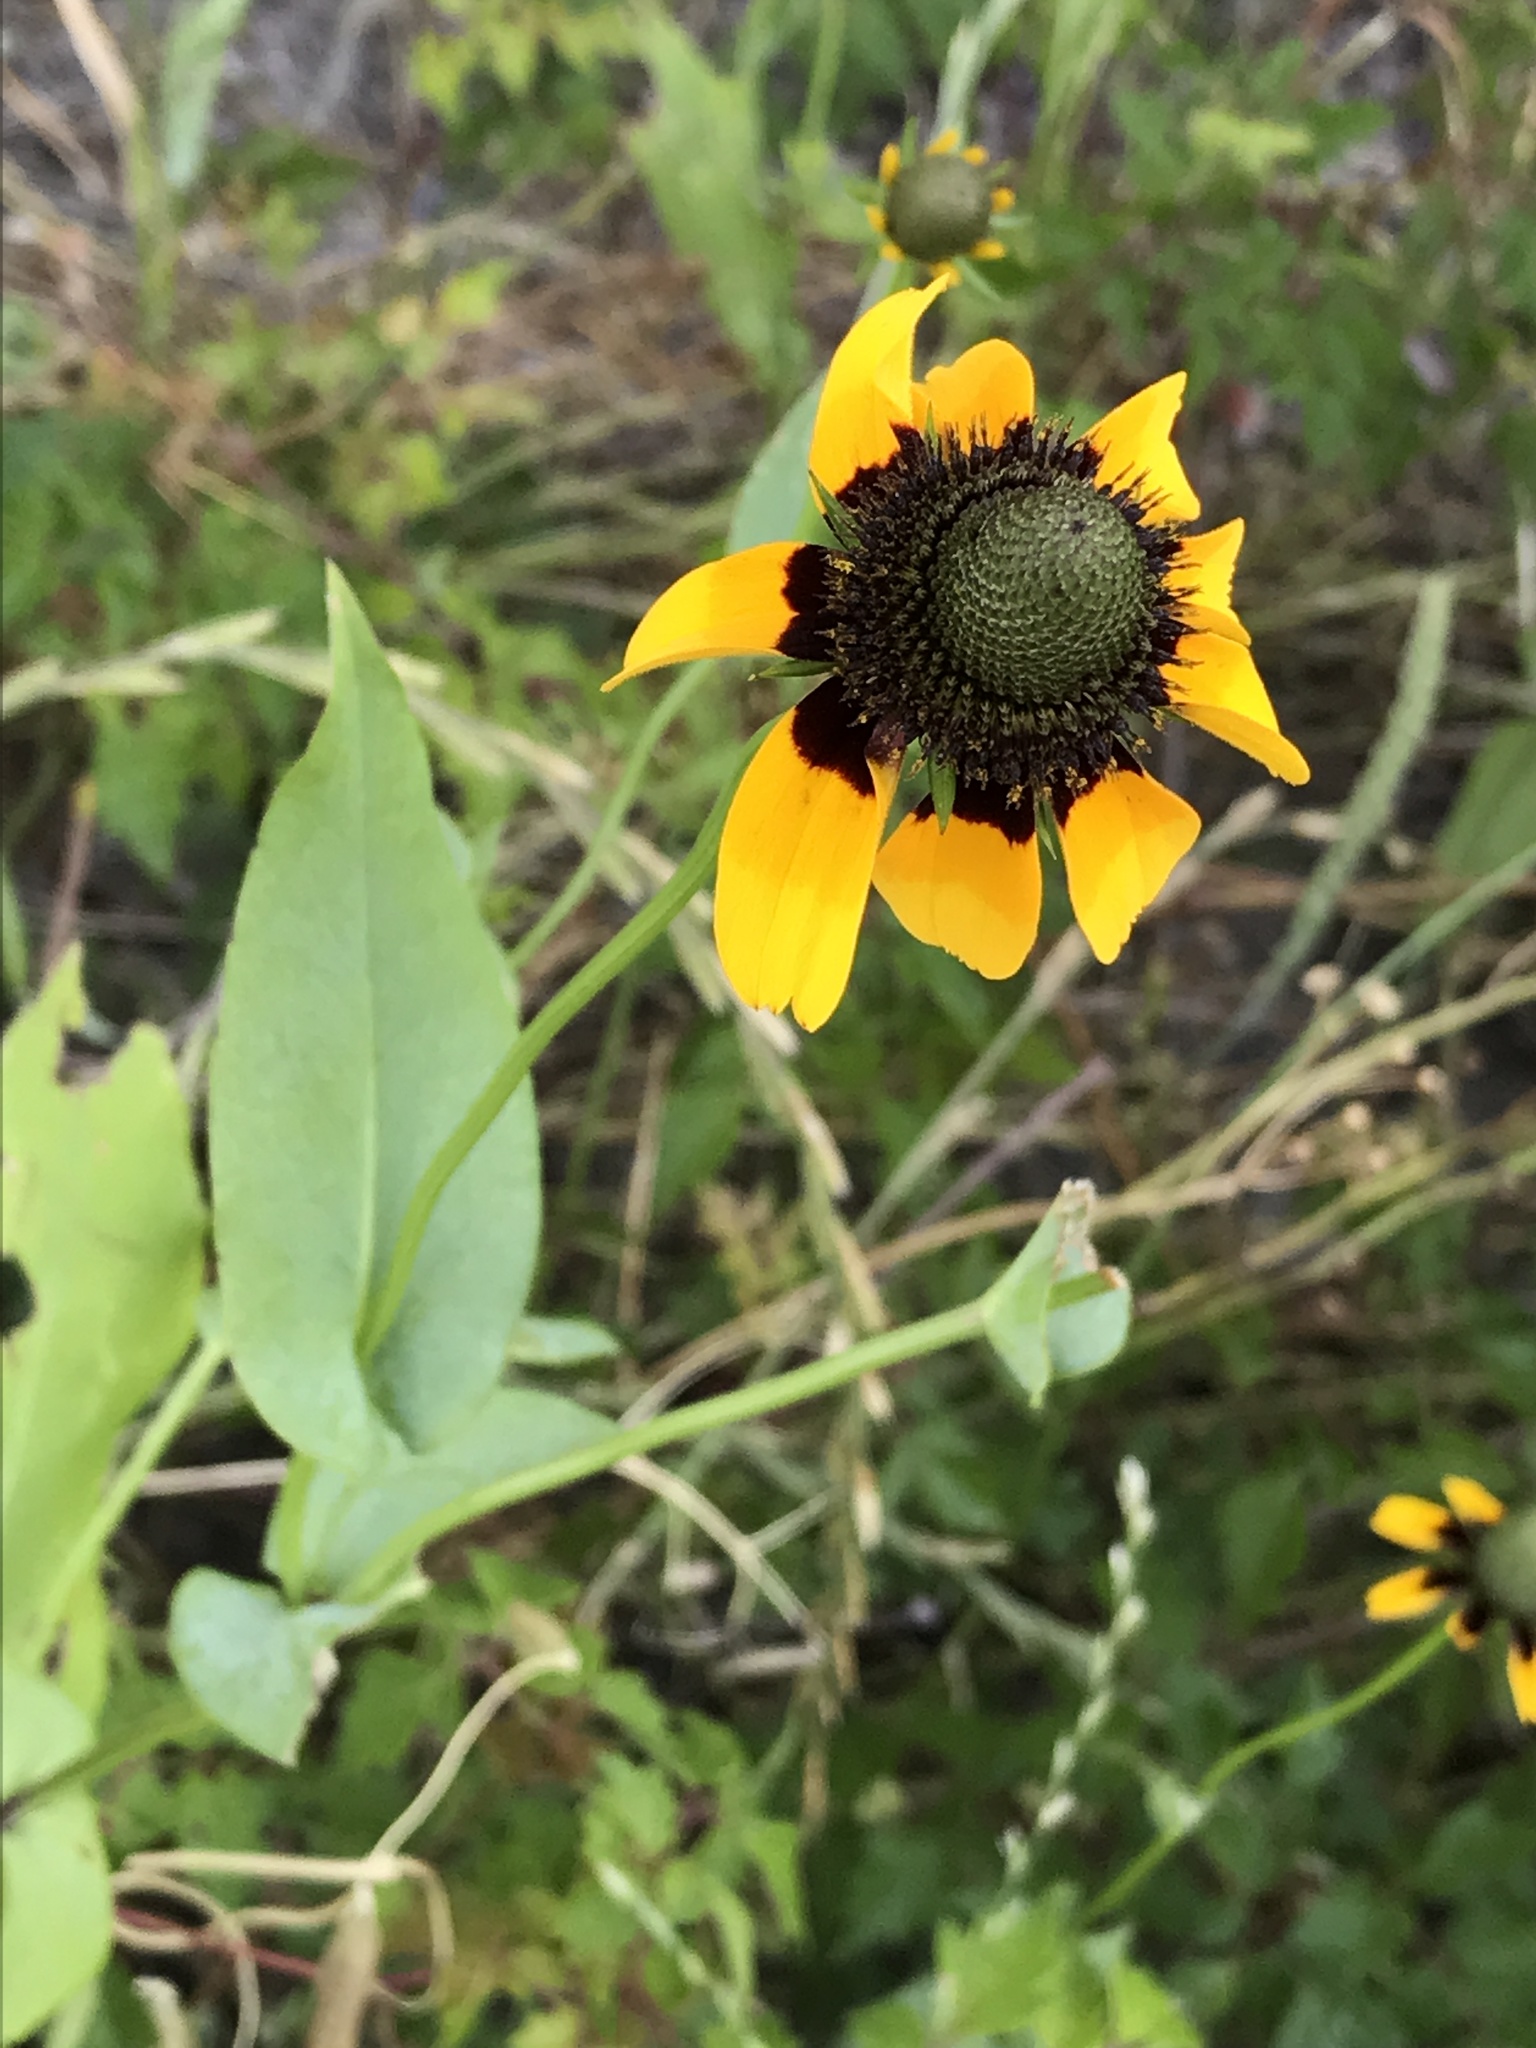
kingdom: Plantae
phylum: Tracheophyta
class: Magnoliopsida
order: Asterales
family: Asteraceae
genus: Rudbeckia
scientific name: Rudbeckia amplexicaulis
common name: Clasping-leaf coneflower
